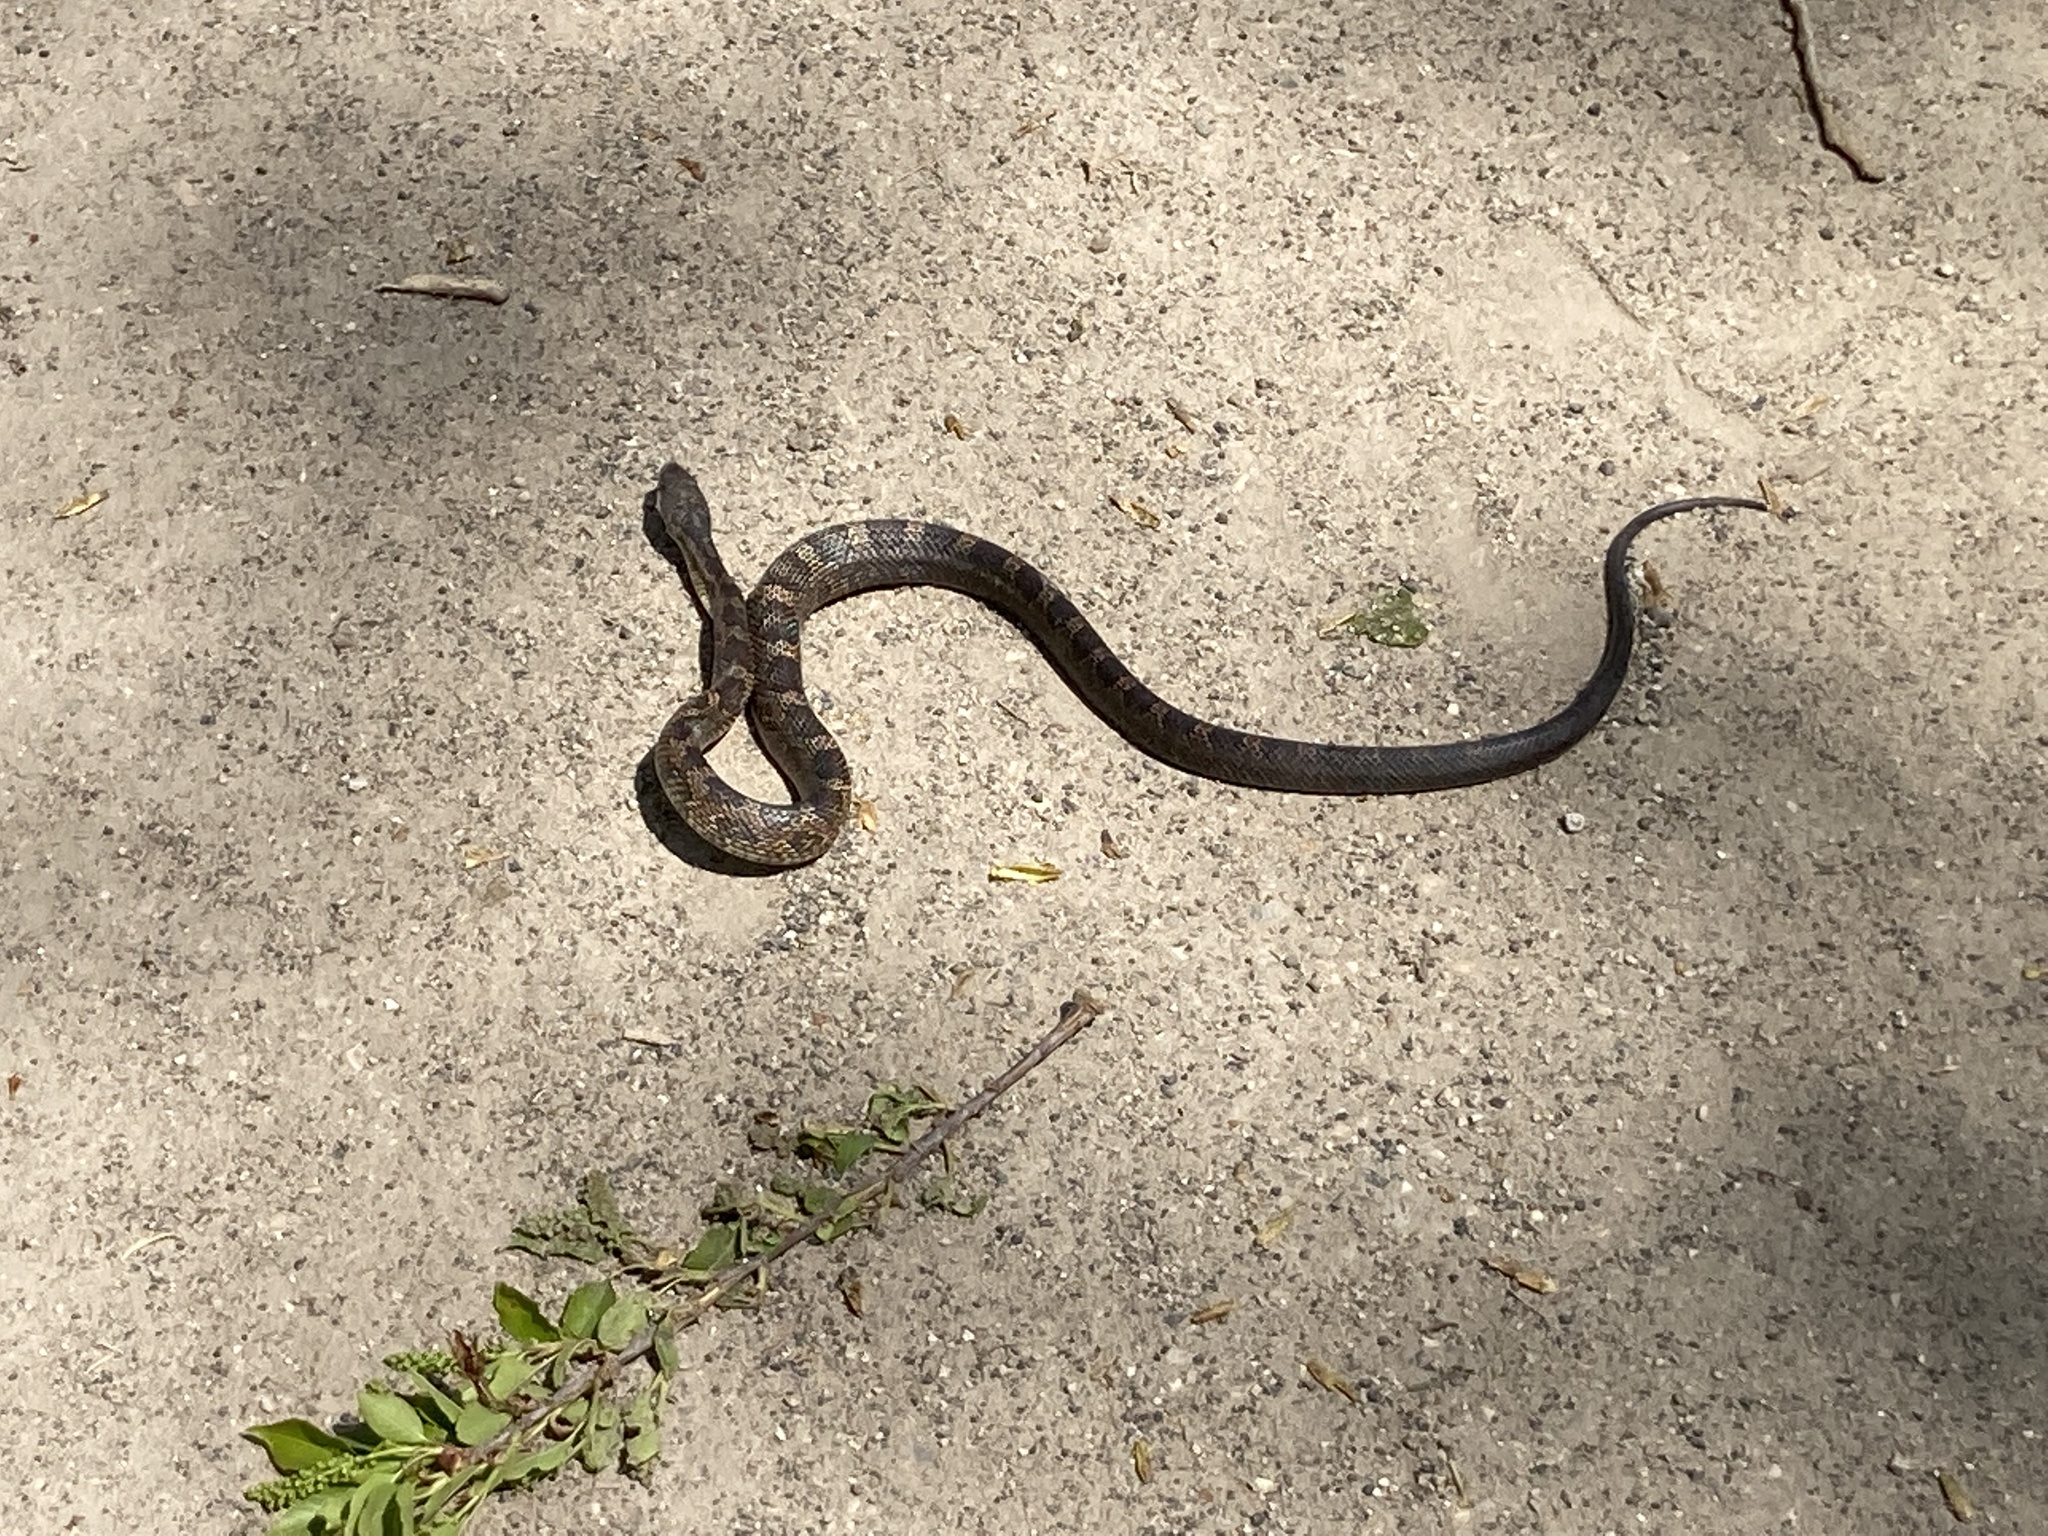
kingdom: Animalia
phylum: Chordata
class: Squamata
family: Colubridae
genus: Pantherophis
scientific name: Pantherophis spiloides
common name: Gray rat snake
